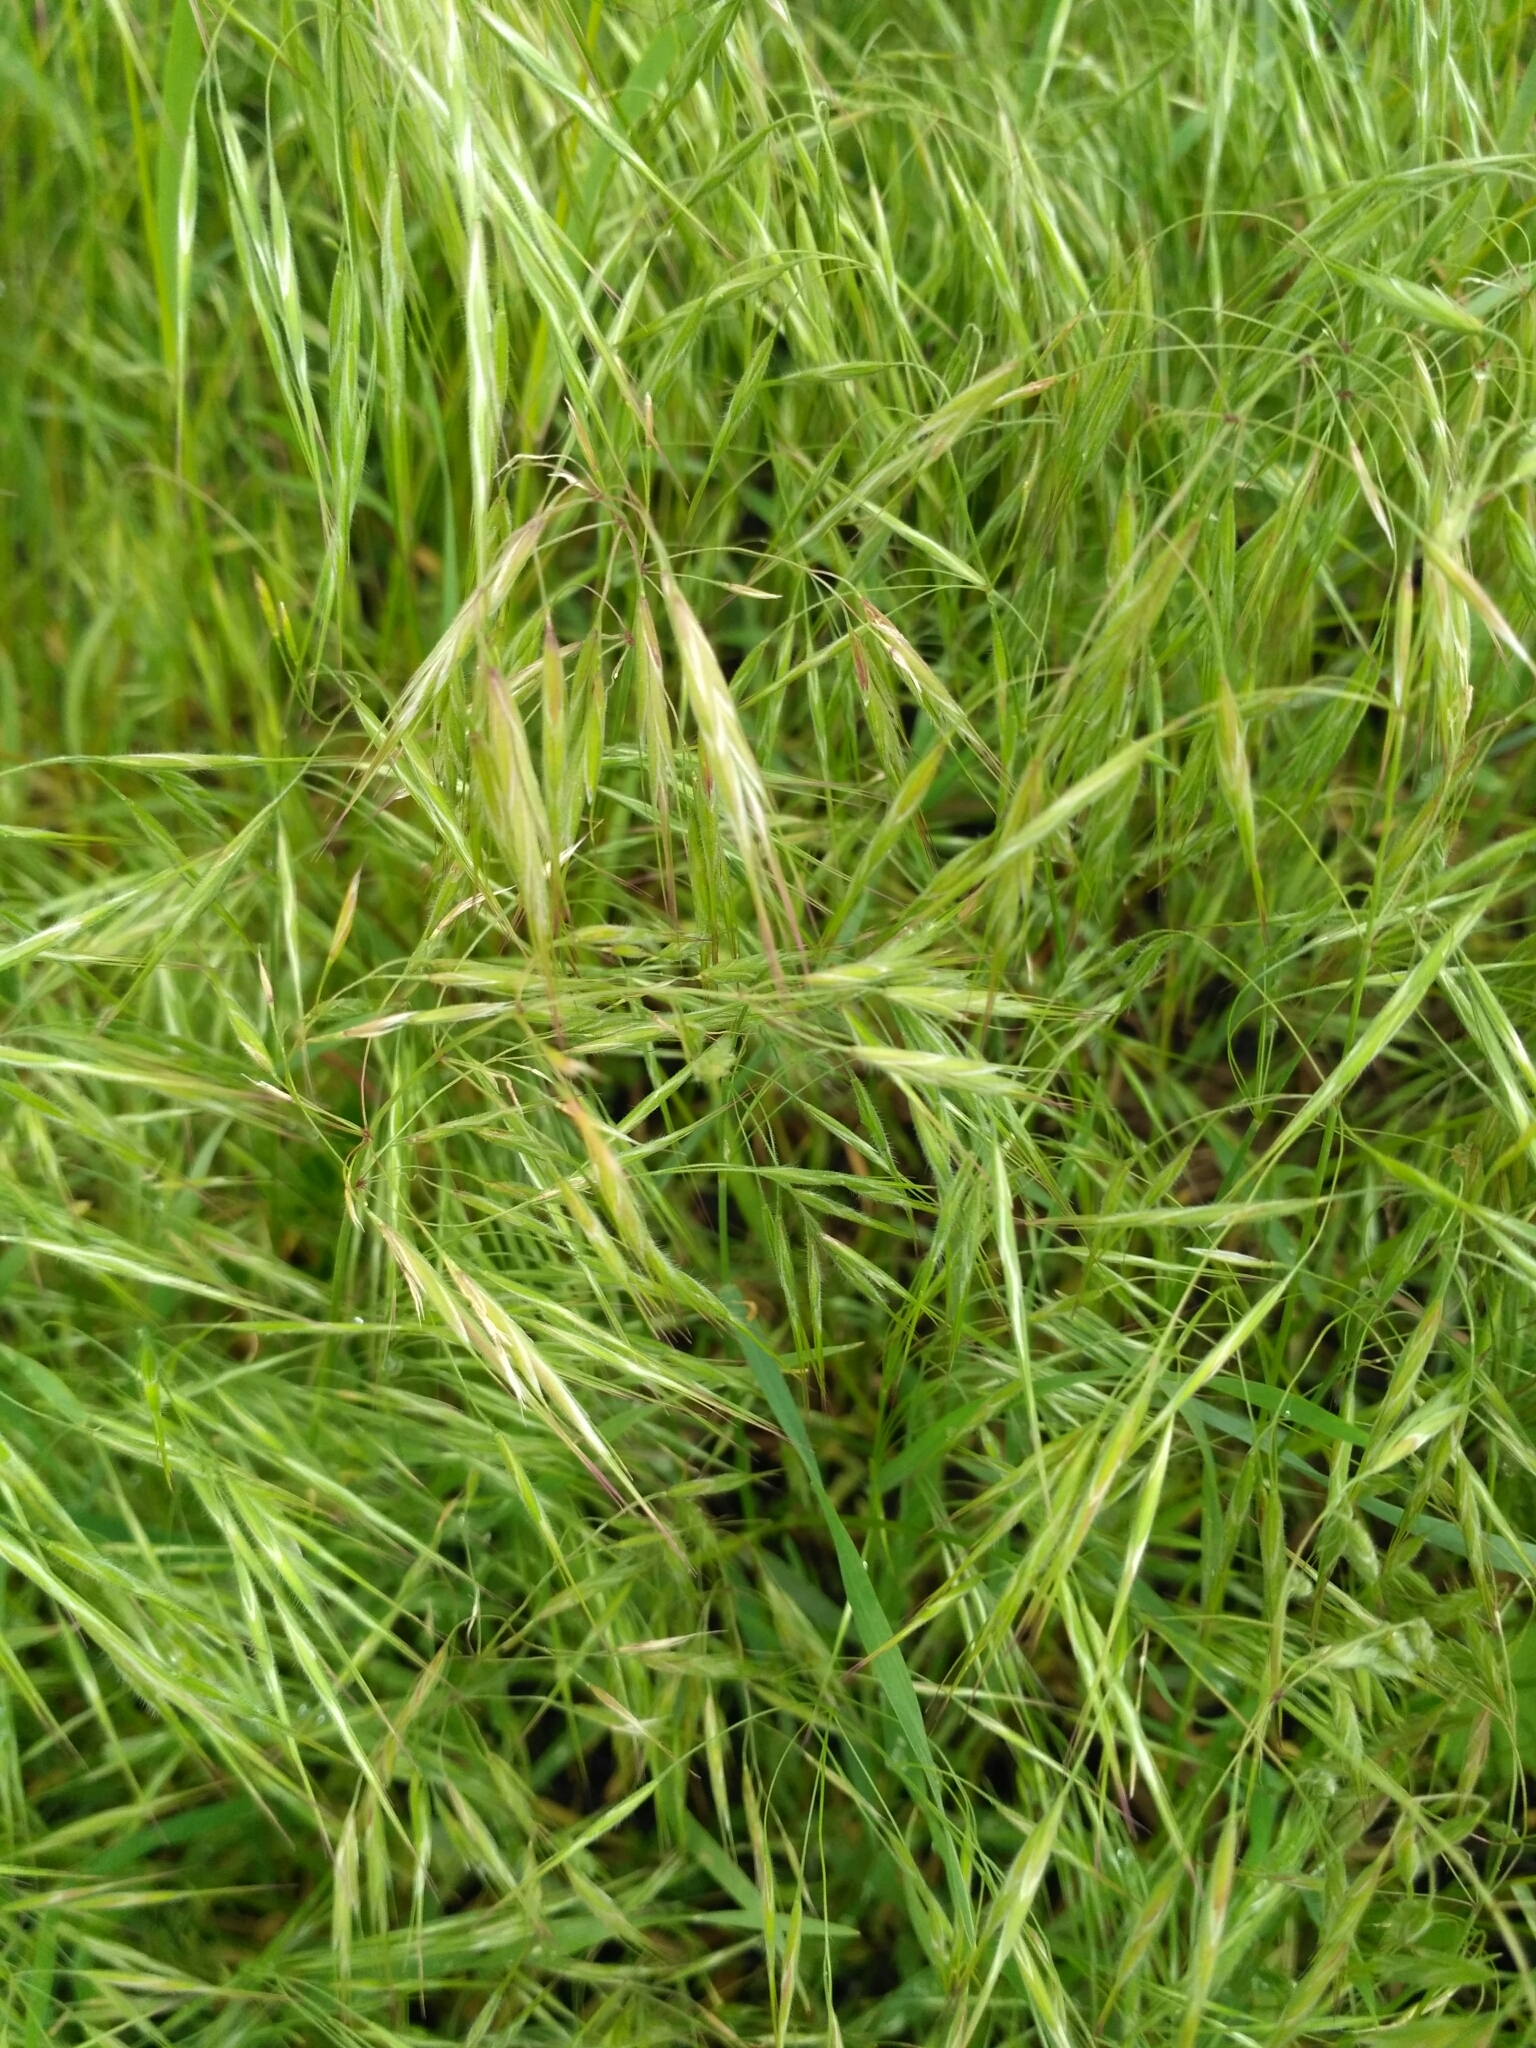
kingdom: Plantae
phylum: Tracheophyta
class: Liliopsida
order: Poales
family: Poaceae
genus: Bromus
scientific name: Bromus tectorum
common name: Cheatgrass
